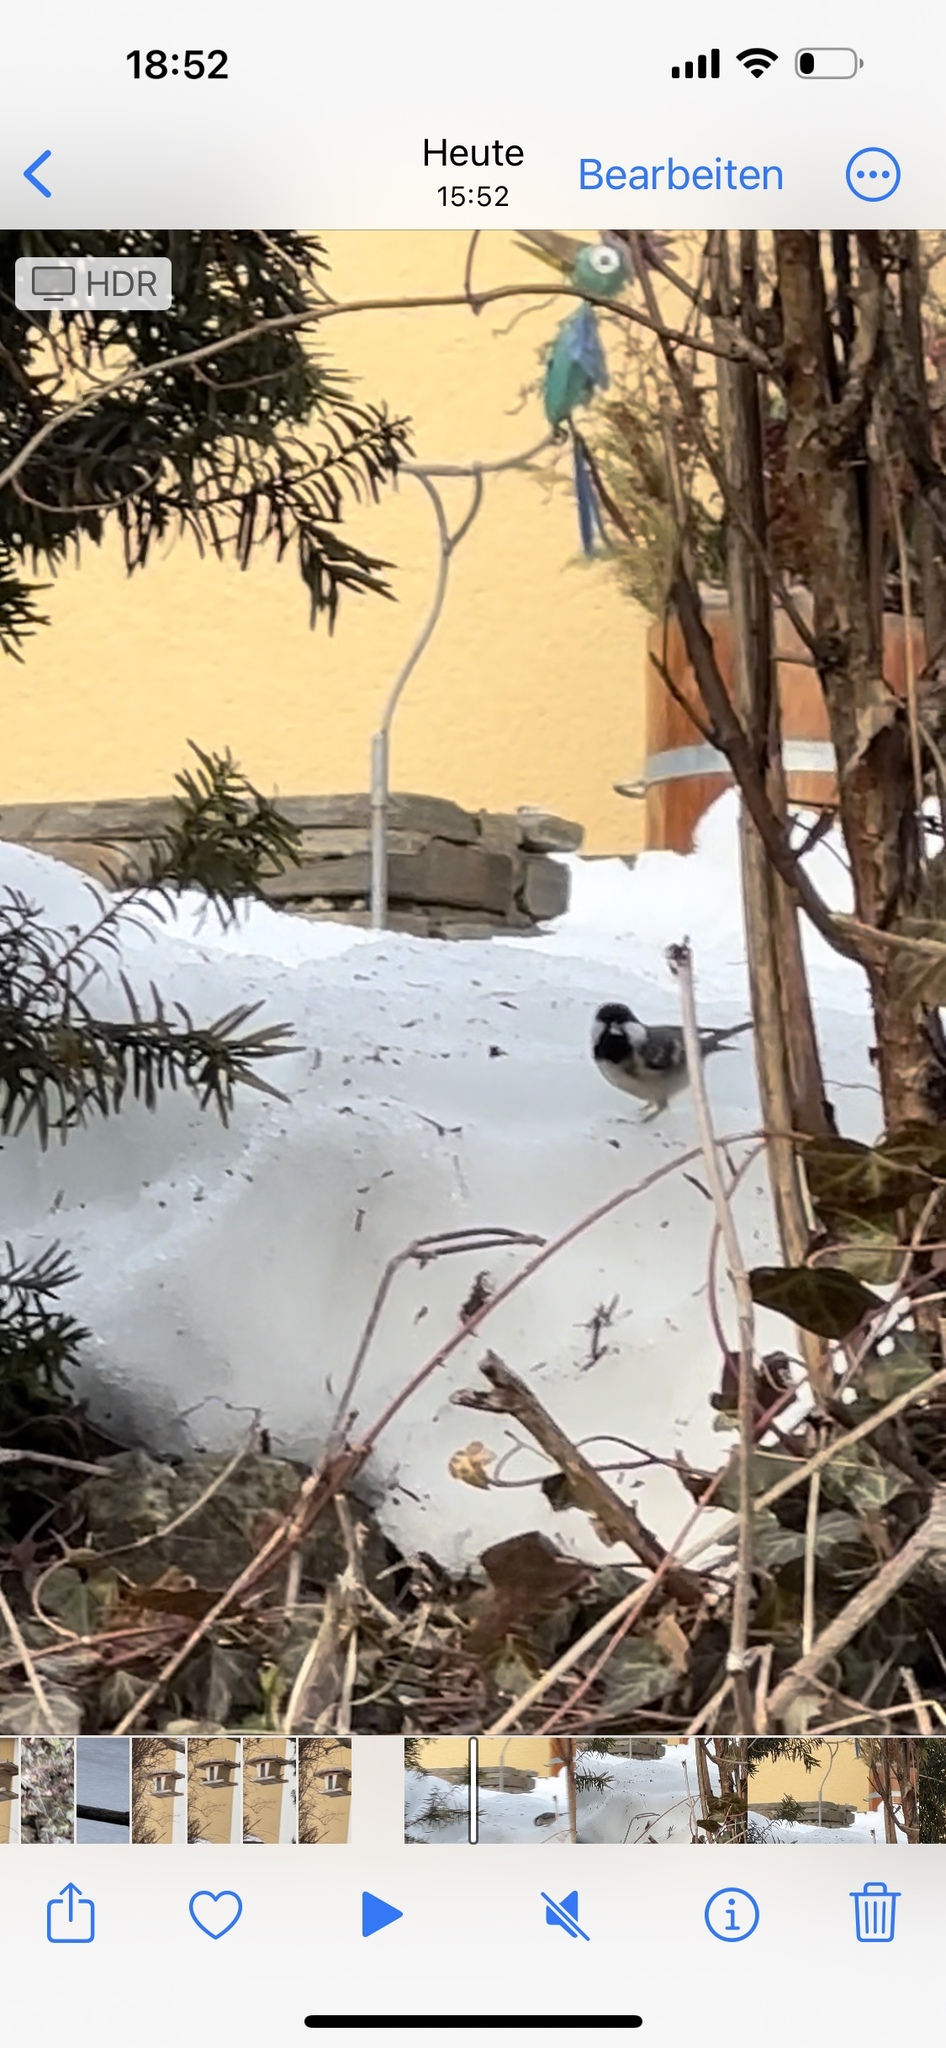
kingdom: Animalia
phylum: Chordata
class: Aves
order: Passeriformes
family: Paridae
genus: Periparus
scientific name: Periparus ater
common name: Coal tit
